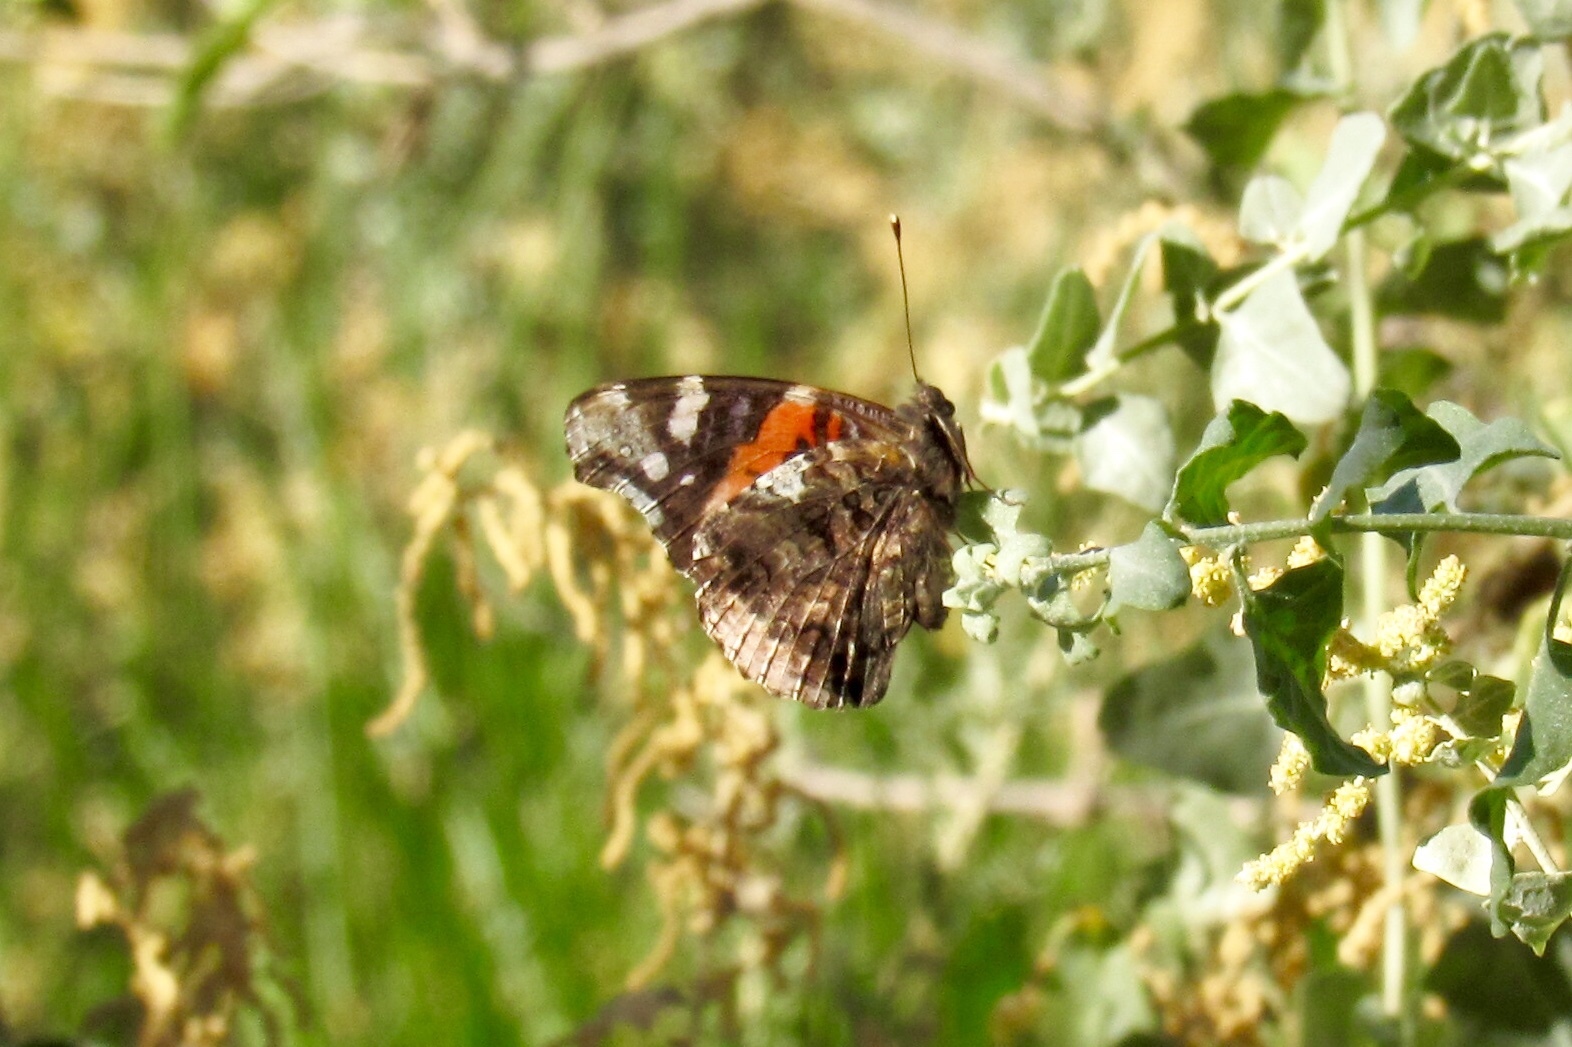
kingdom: Animalia
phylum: Arthropoda
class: Insecta
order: Lepidoptera
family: Nymphalidae
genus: Vanessa
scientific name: Vanessa atalanta
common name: Red admiral
